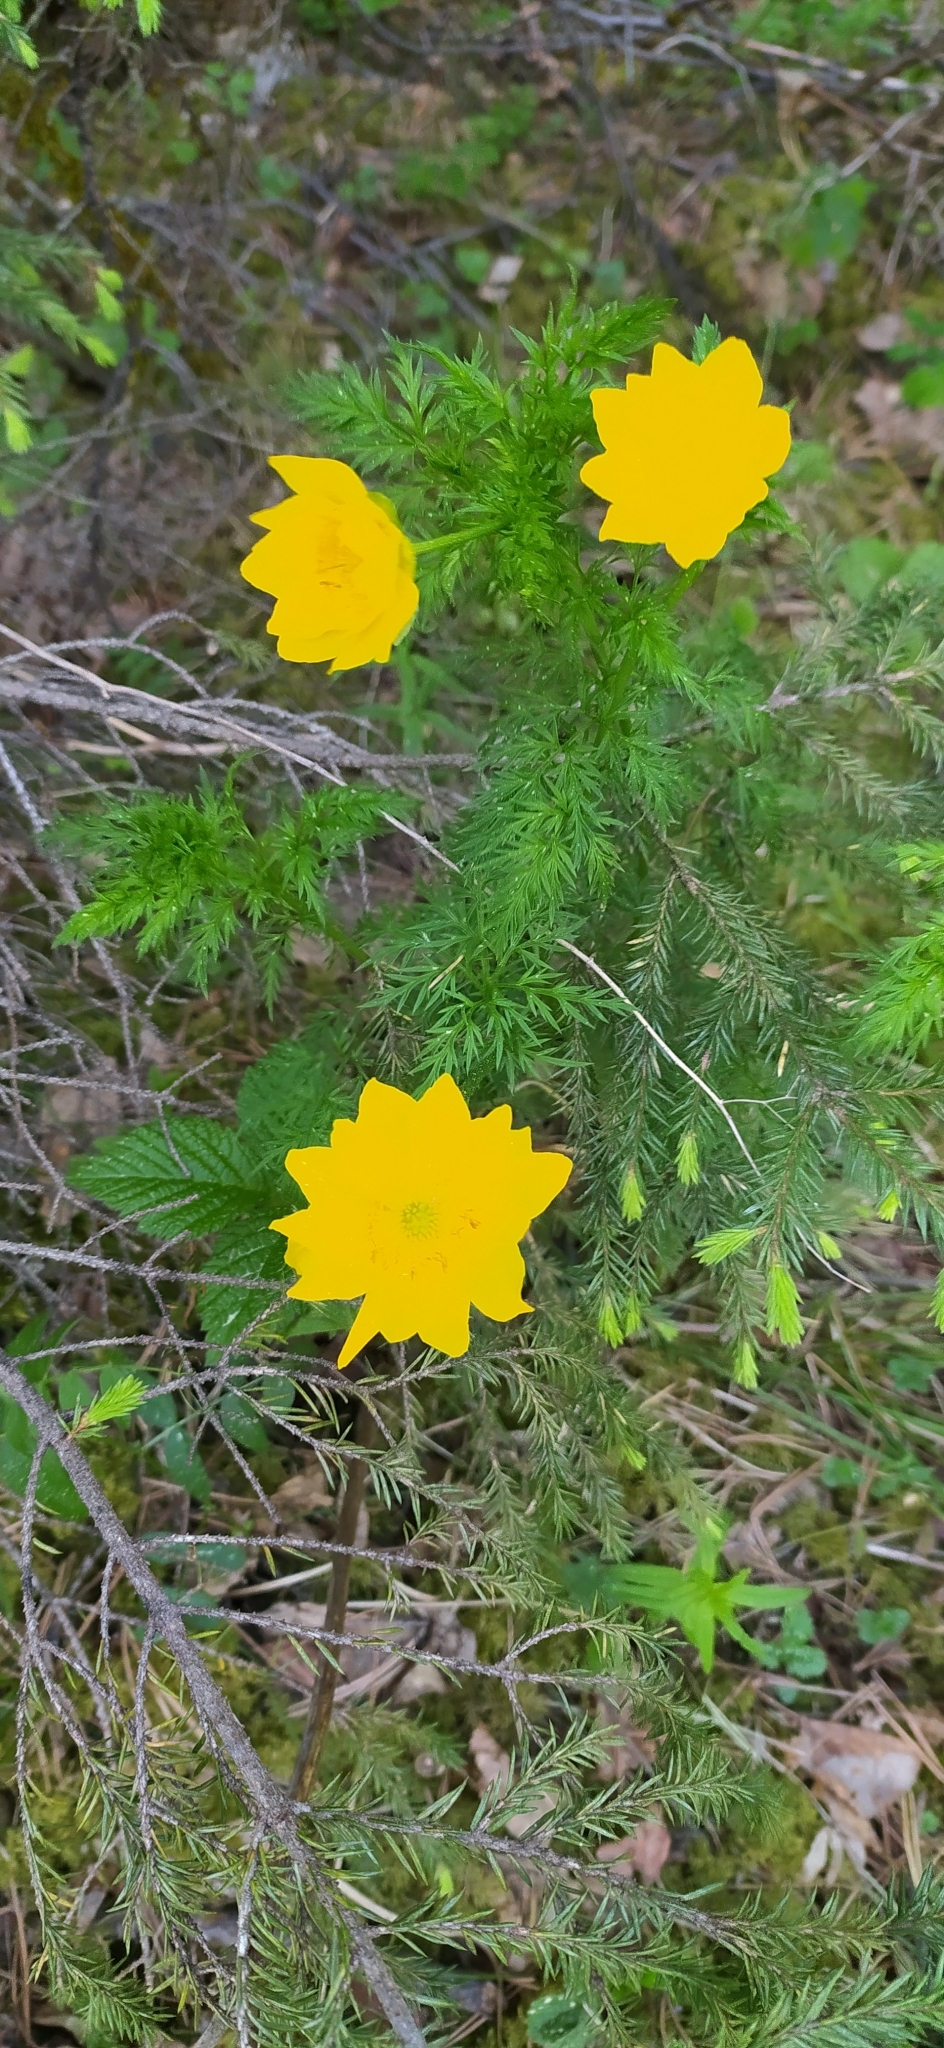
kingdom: Plantae
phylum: Tracheophyta
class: Magnoliopsida
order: Ranunculales
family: Ranunculaceae
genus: Adonis
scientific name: Adonis
